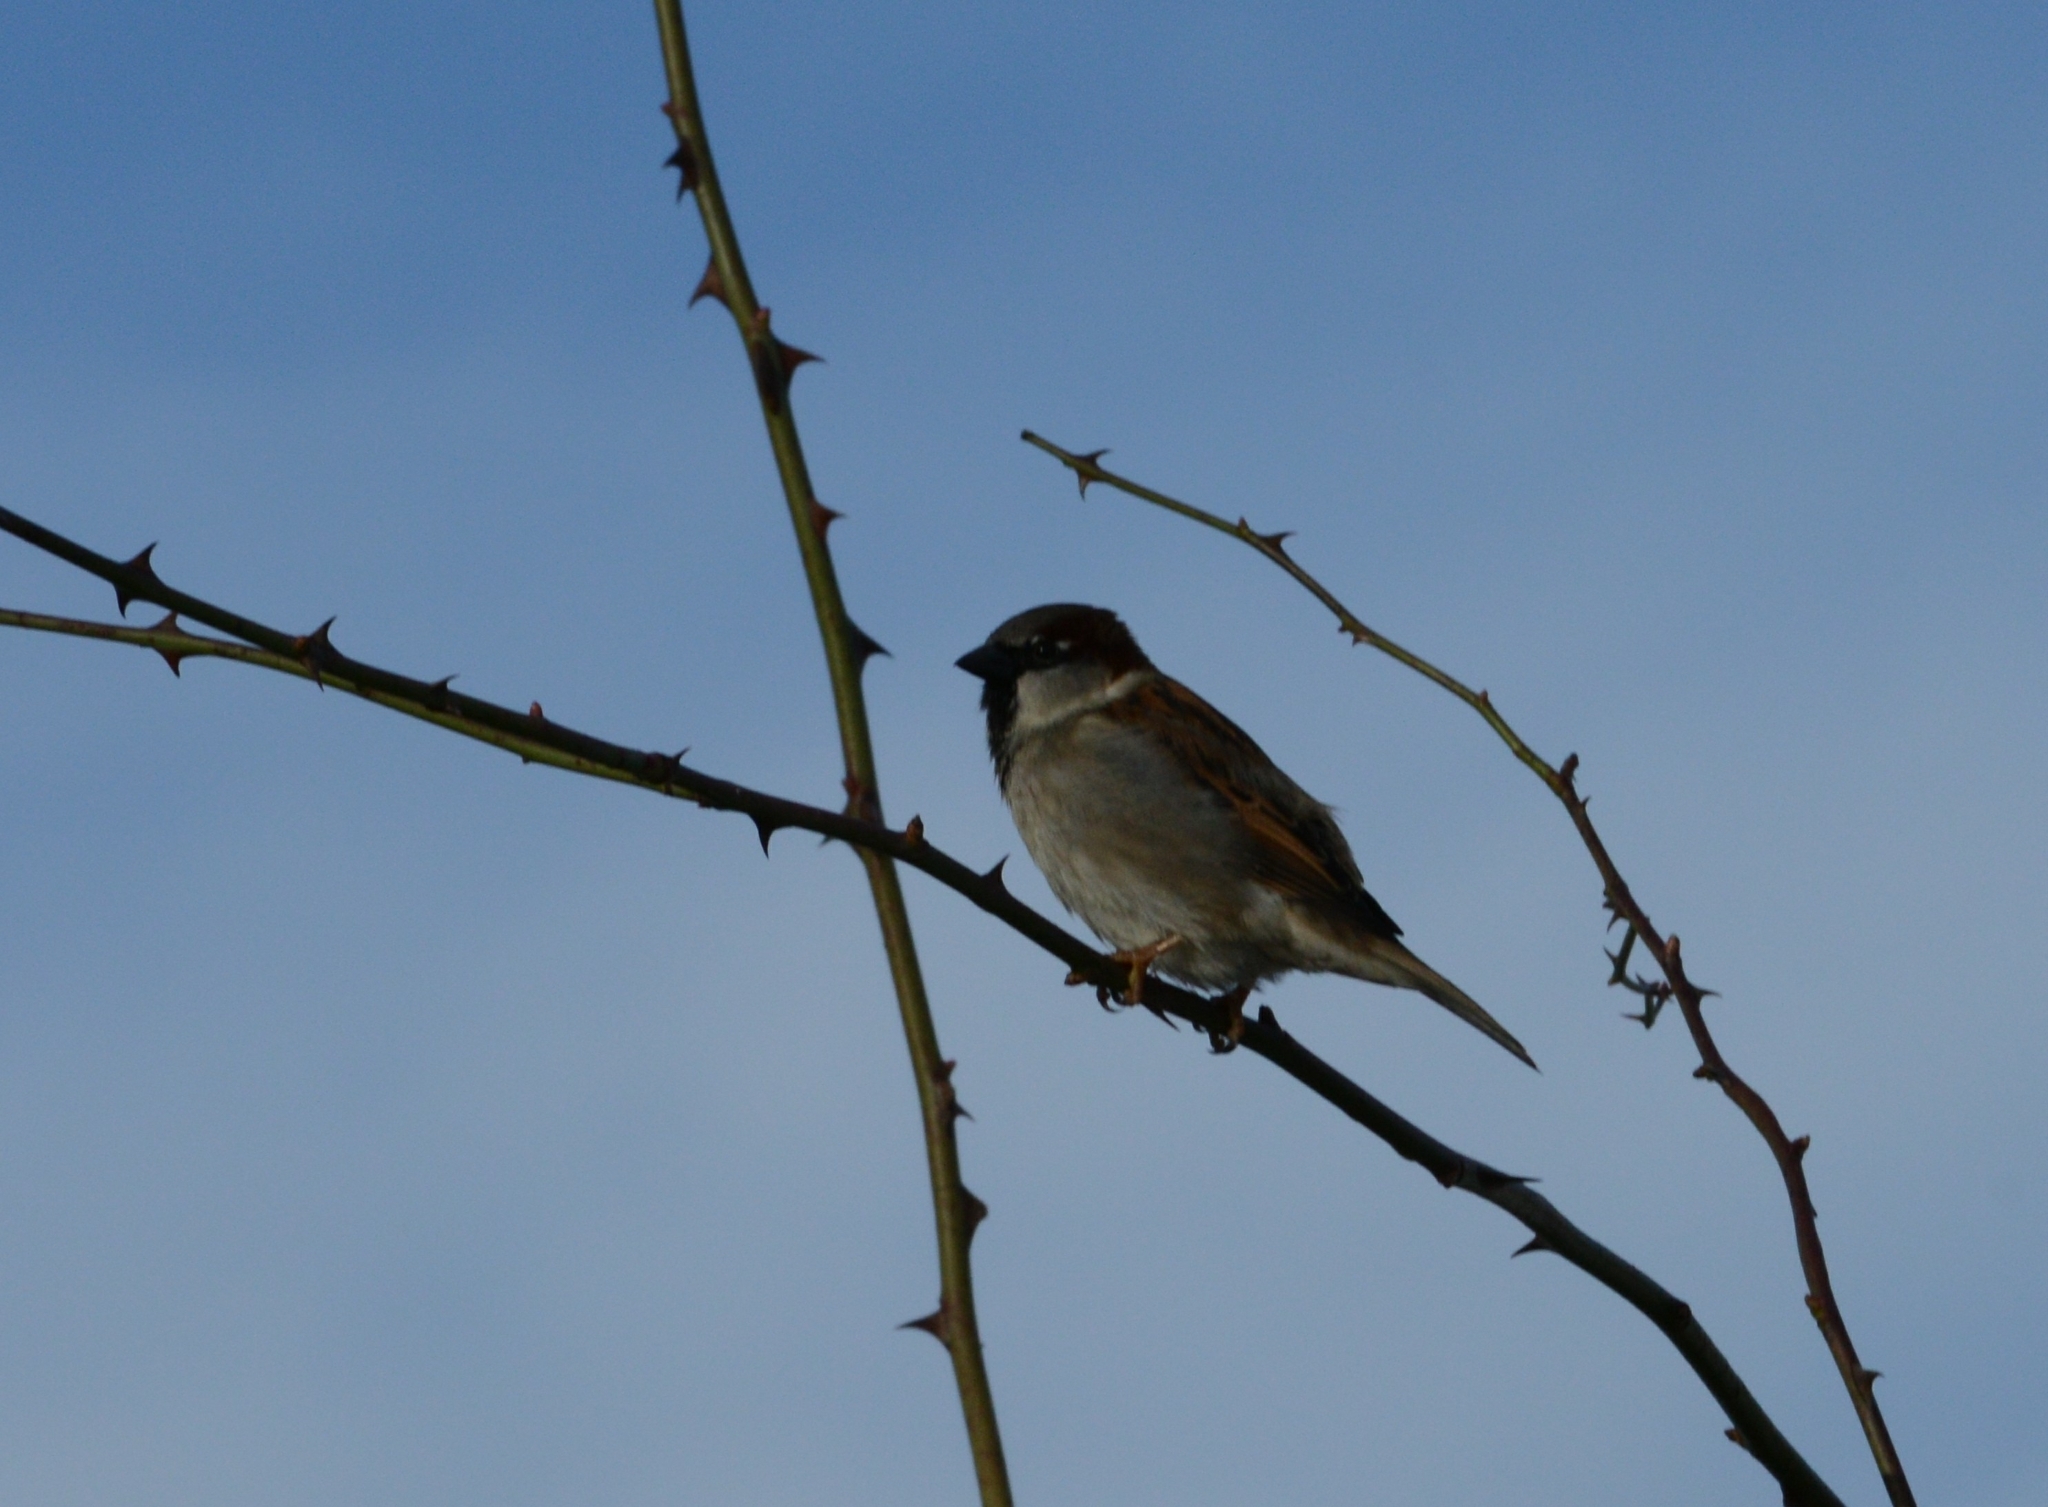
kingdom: Animalia
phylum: Chordata
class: Aves
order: Passeriformes
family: Passeridae
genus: Passer
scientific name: Passer domesticus
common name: House sparrow
